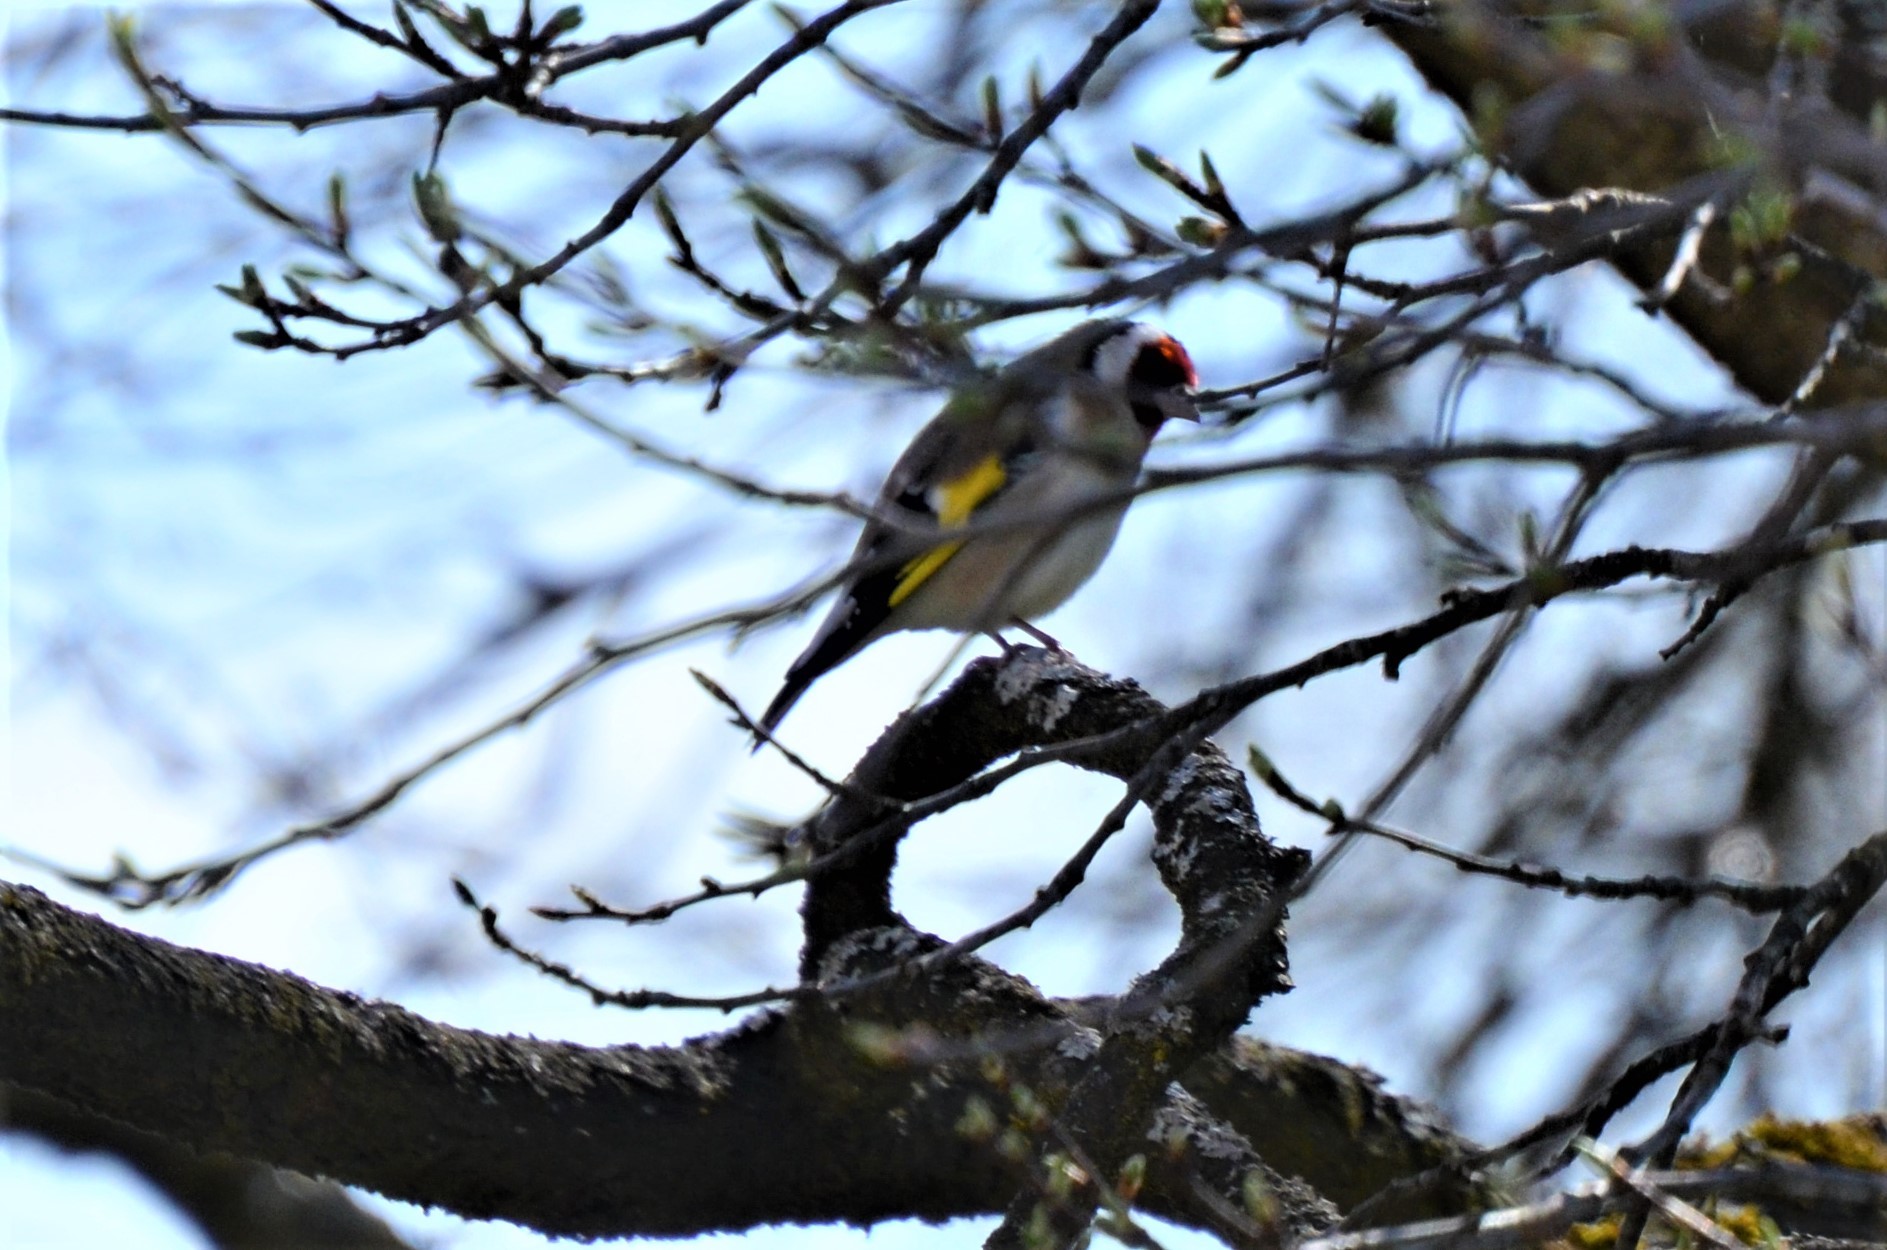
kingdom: Animalia
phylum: Chordata
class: Aves
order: Passeriformes
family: Fringillidae
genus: Carduelis
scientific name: Carduelis carduelis
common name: European goldfinch
